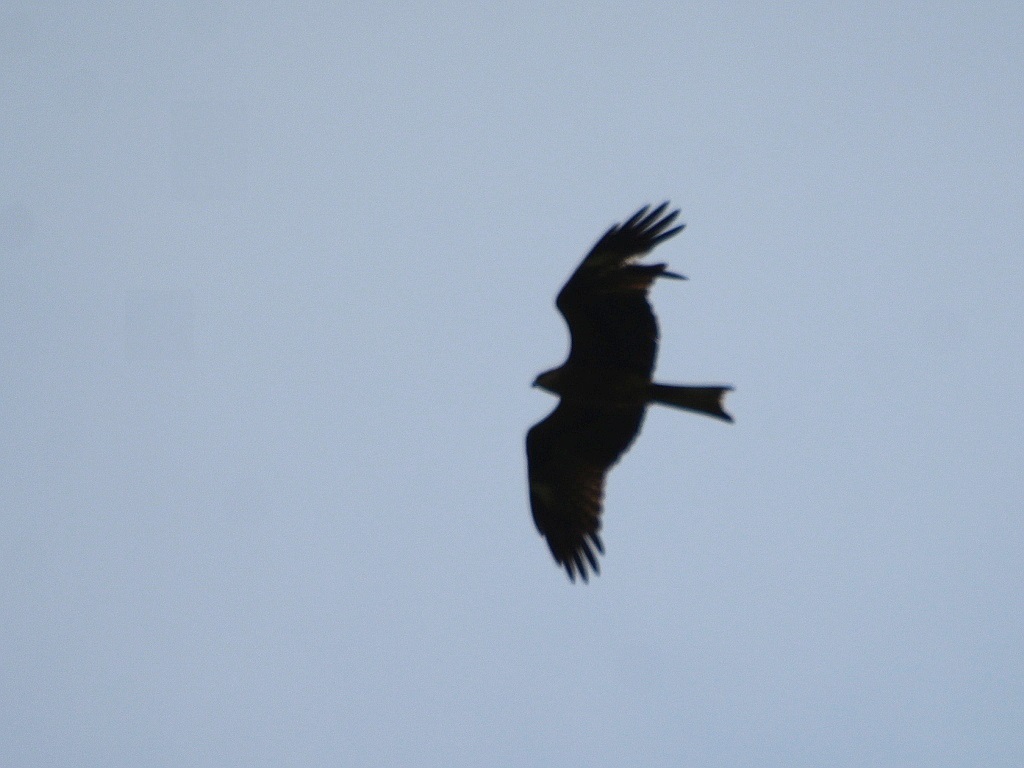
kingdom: Animalia
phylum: Chordata
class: Aves
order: Accipitriformes
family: Accipitridae
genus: Milvus
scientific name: Milvus migrans
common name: Black kite
